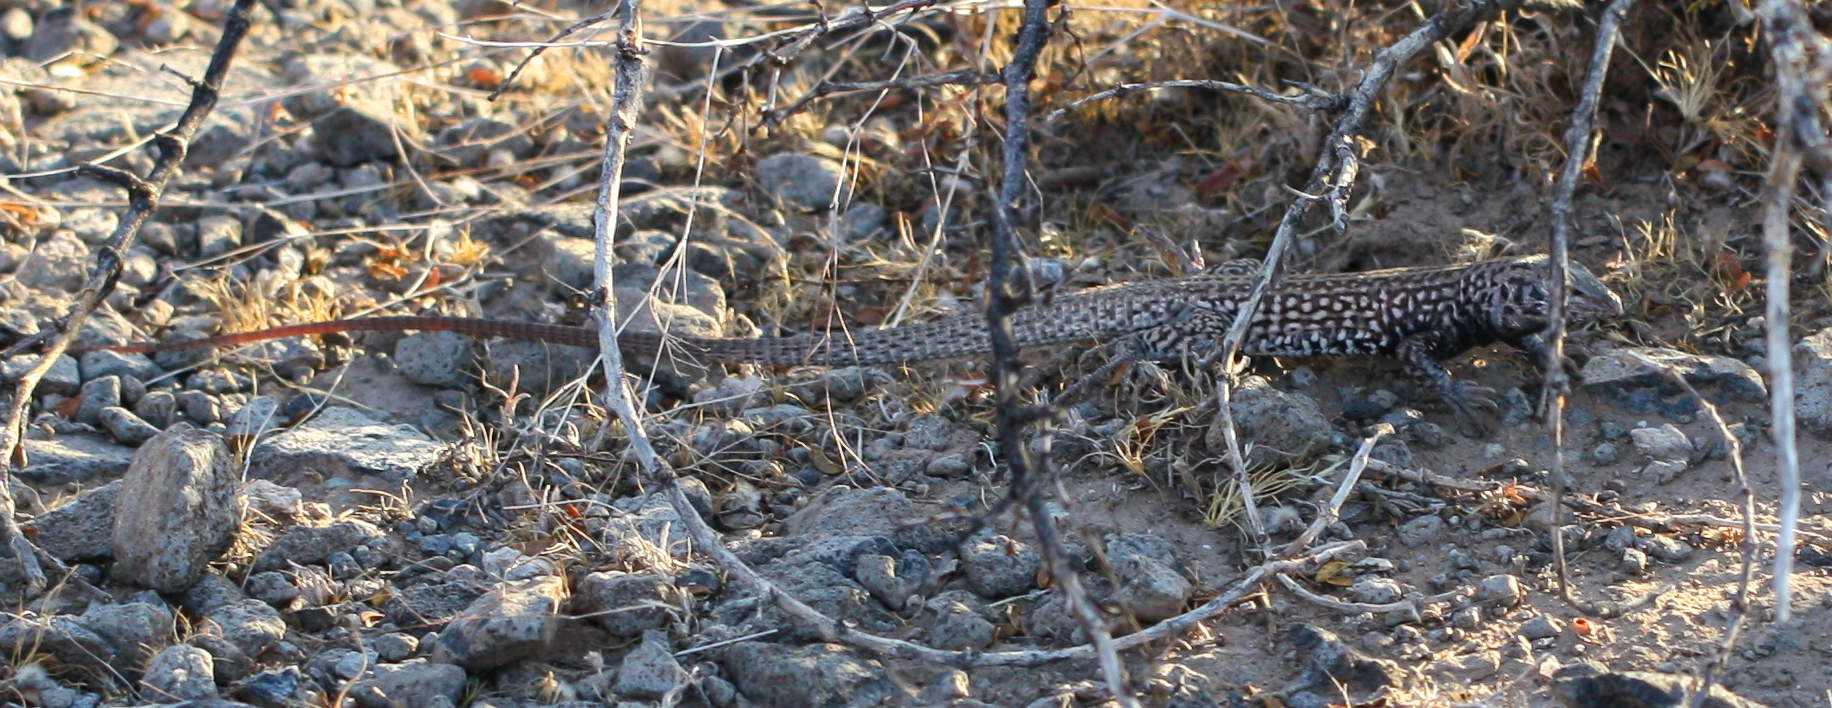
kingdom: Animalia
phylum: Chordata
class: Squamata
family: Teiidae
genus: Aspidoscelis
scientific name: Aspidoscelis tigris
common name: Tiger whiptail
